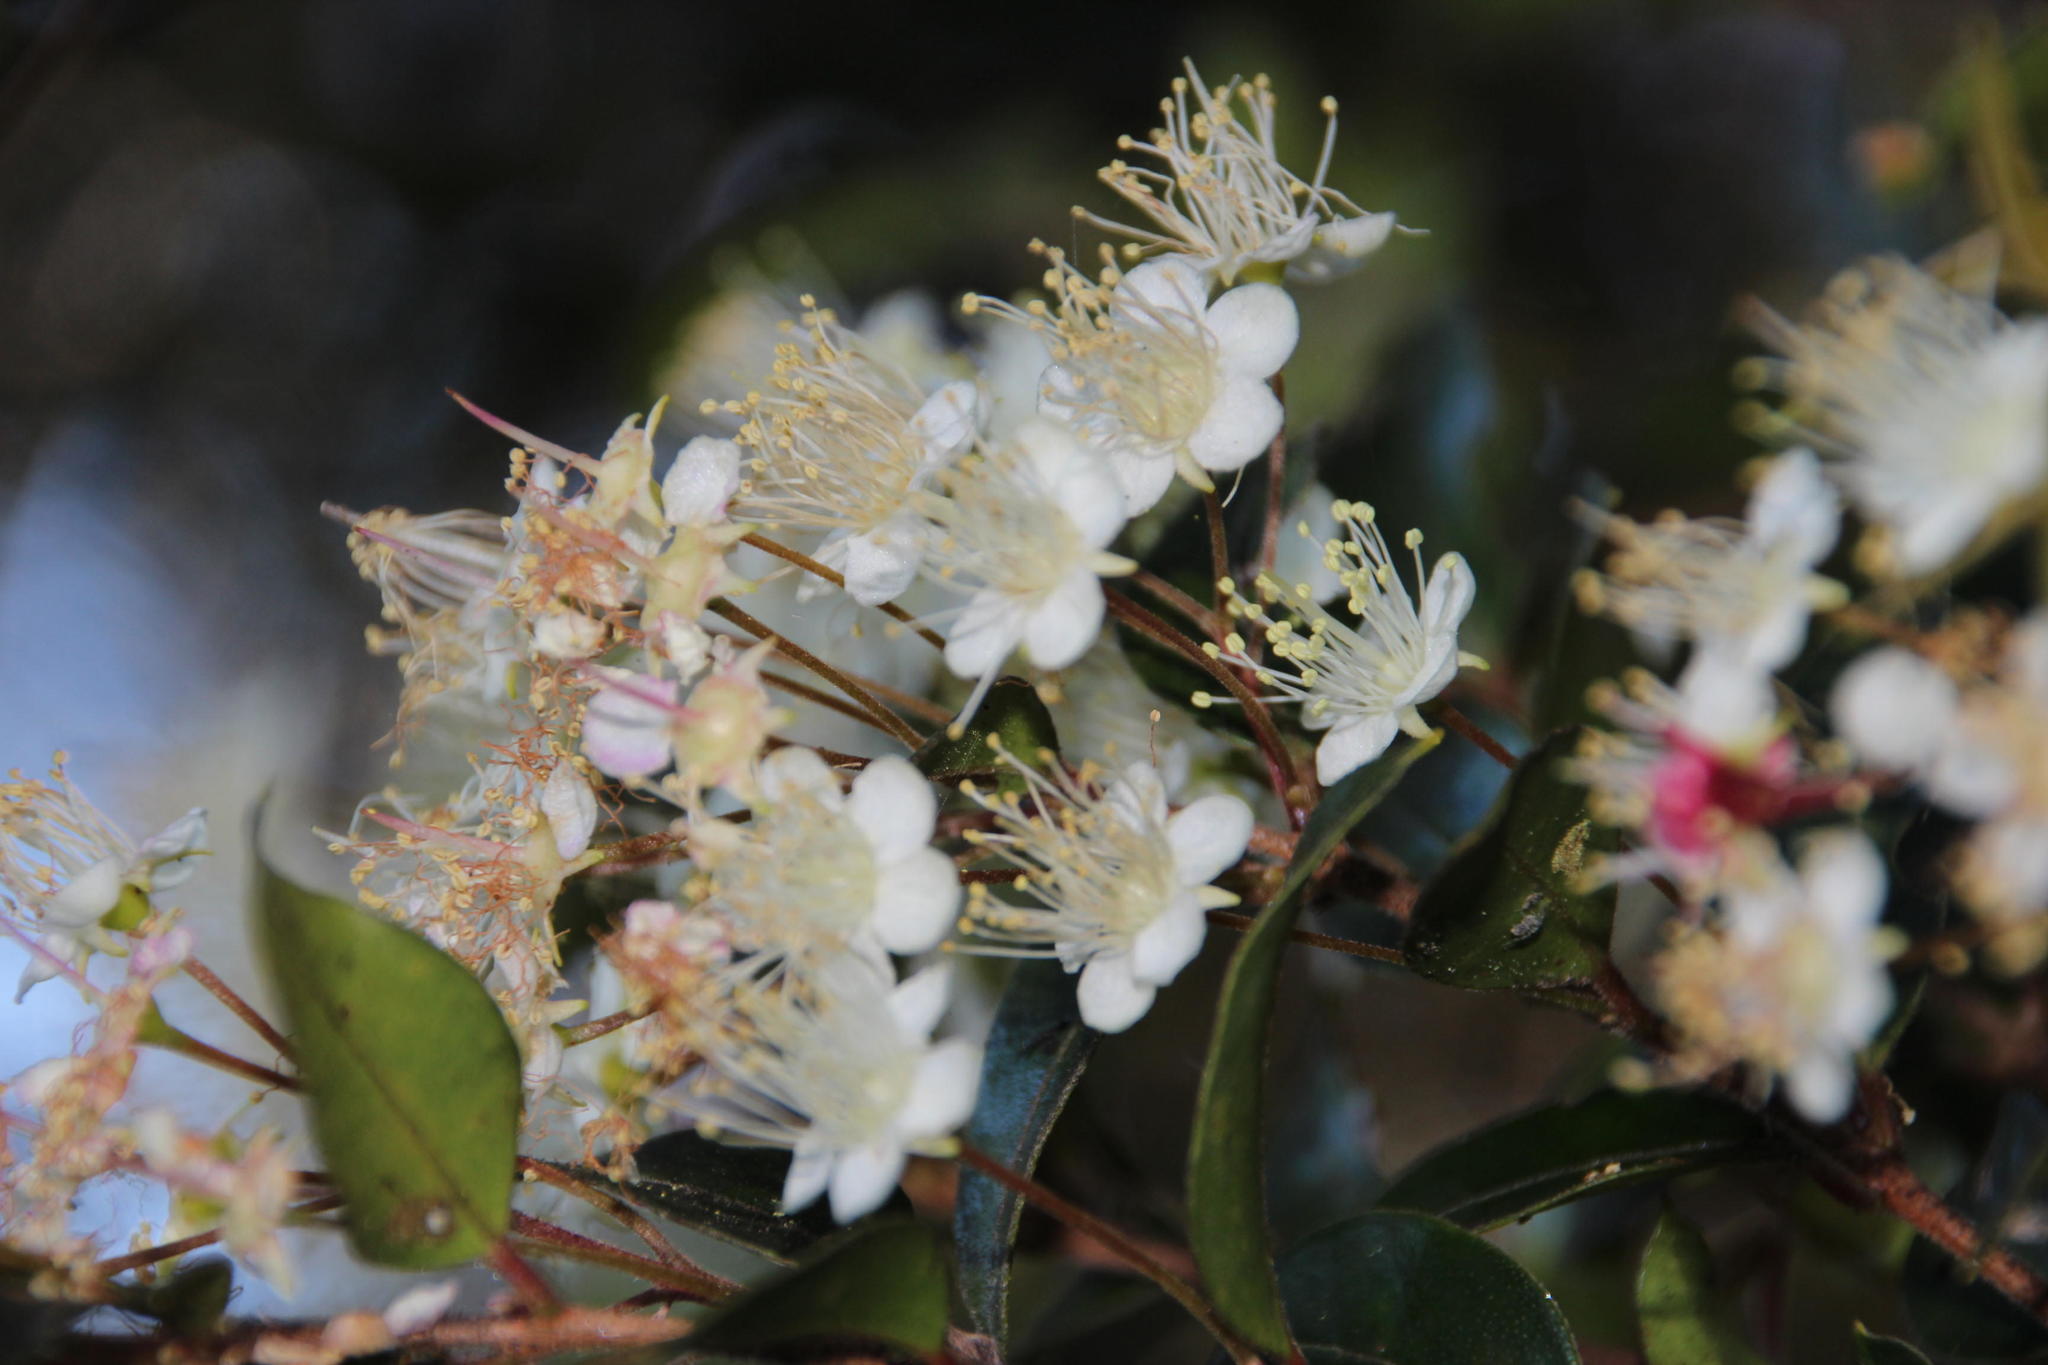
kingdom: Plantae
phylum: Tracheophyta
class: Magnoliopsida
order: Myrtales
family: Myrtaceae
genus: Amomyrtus
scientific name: Amomyrtus luma
